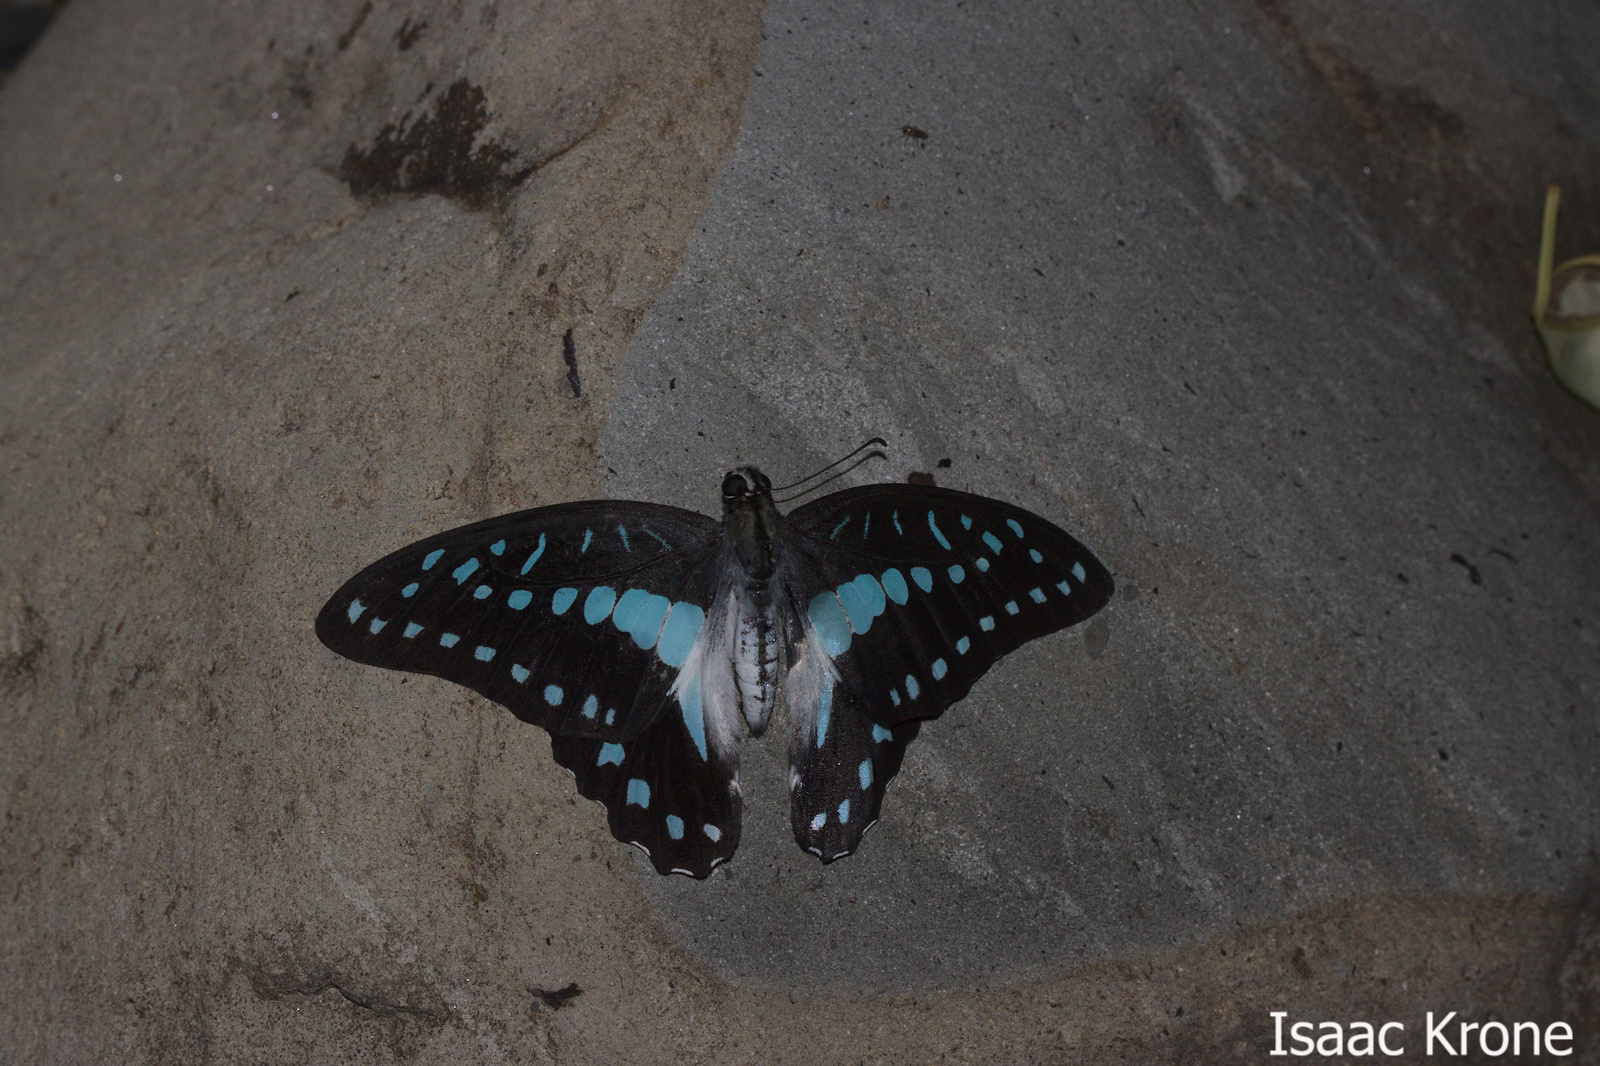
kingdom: Animalia
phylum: Arthropoda
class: Insecta
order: Lepidoptera
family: Papilionidae
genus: Graphium
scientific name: Graphium eurypylus
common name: Great jay
